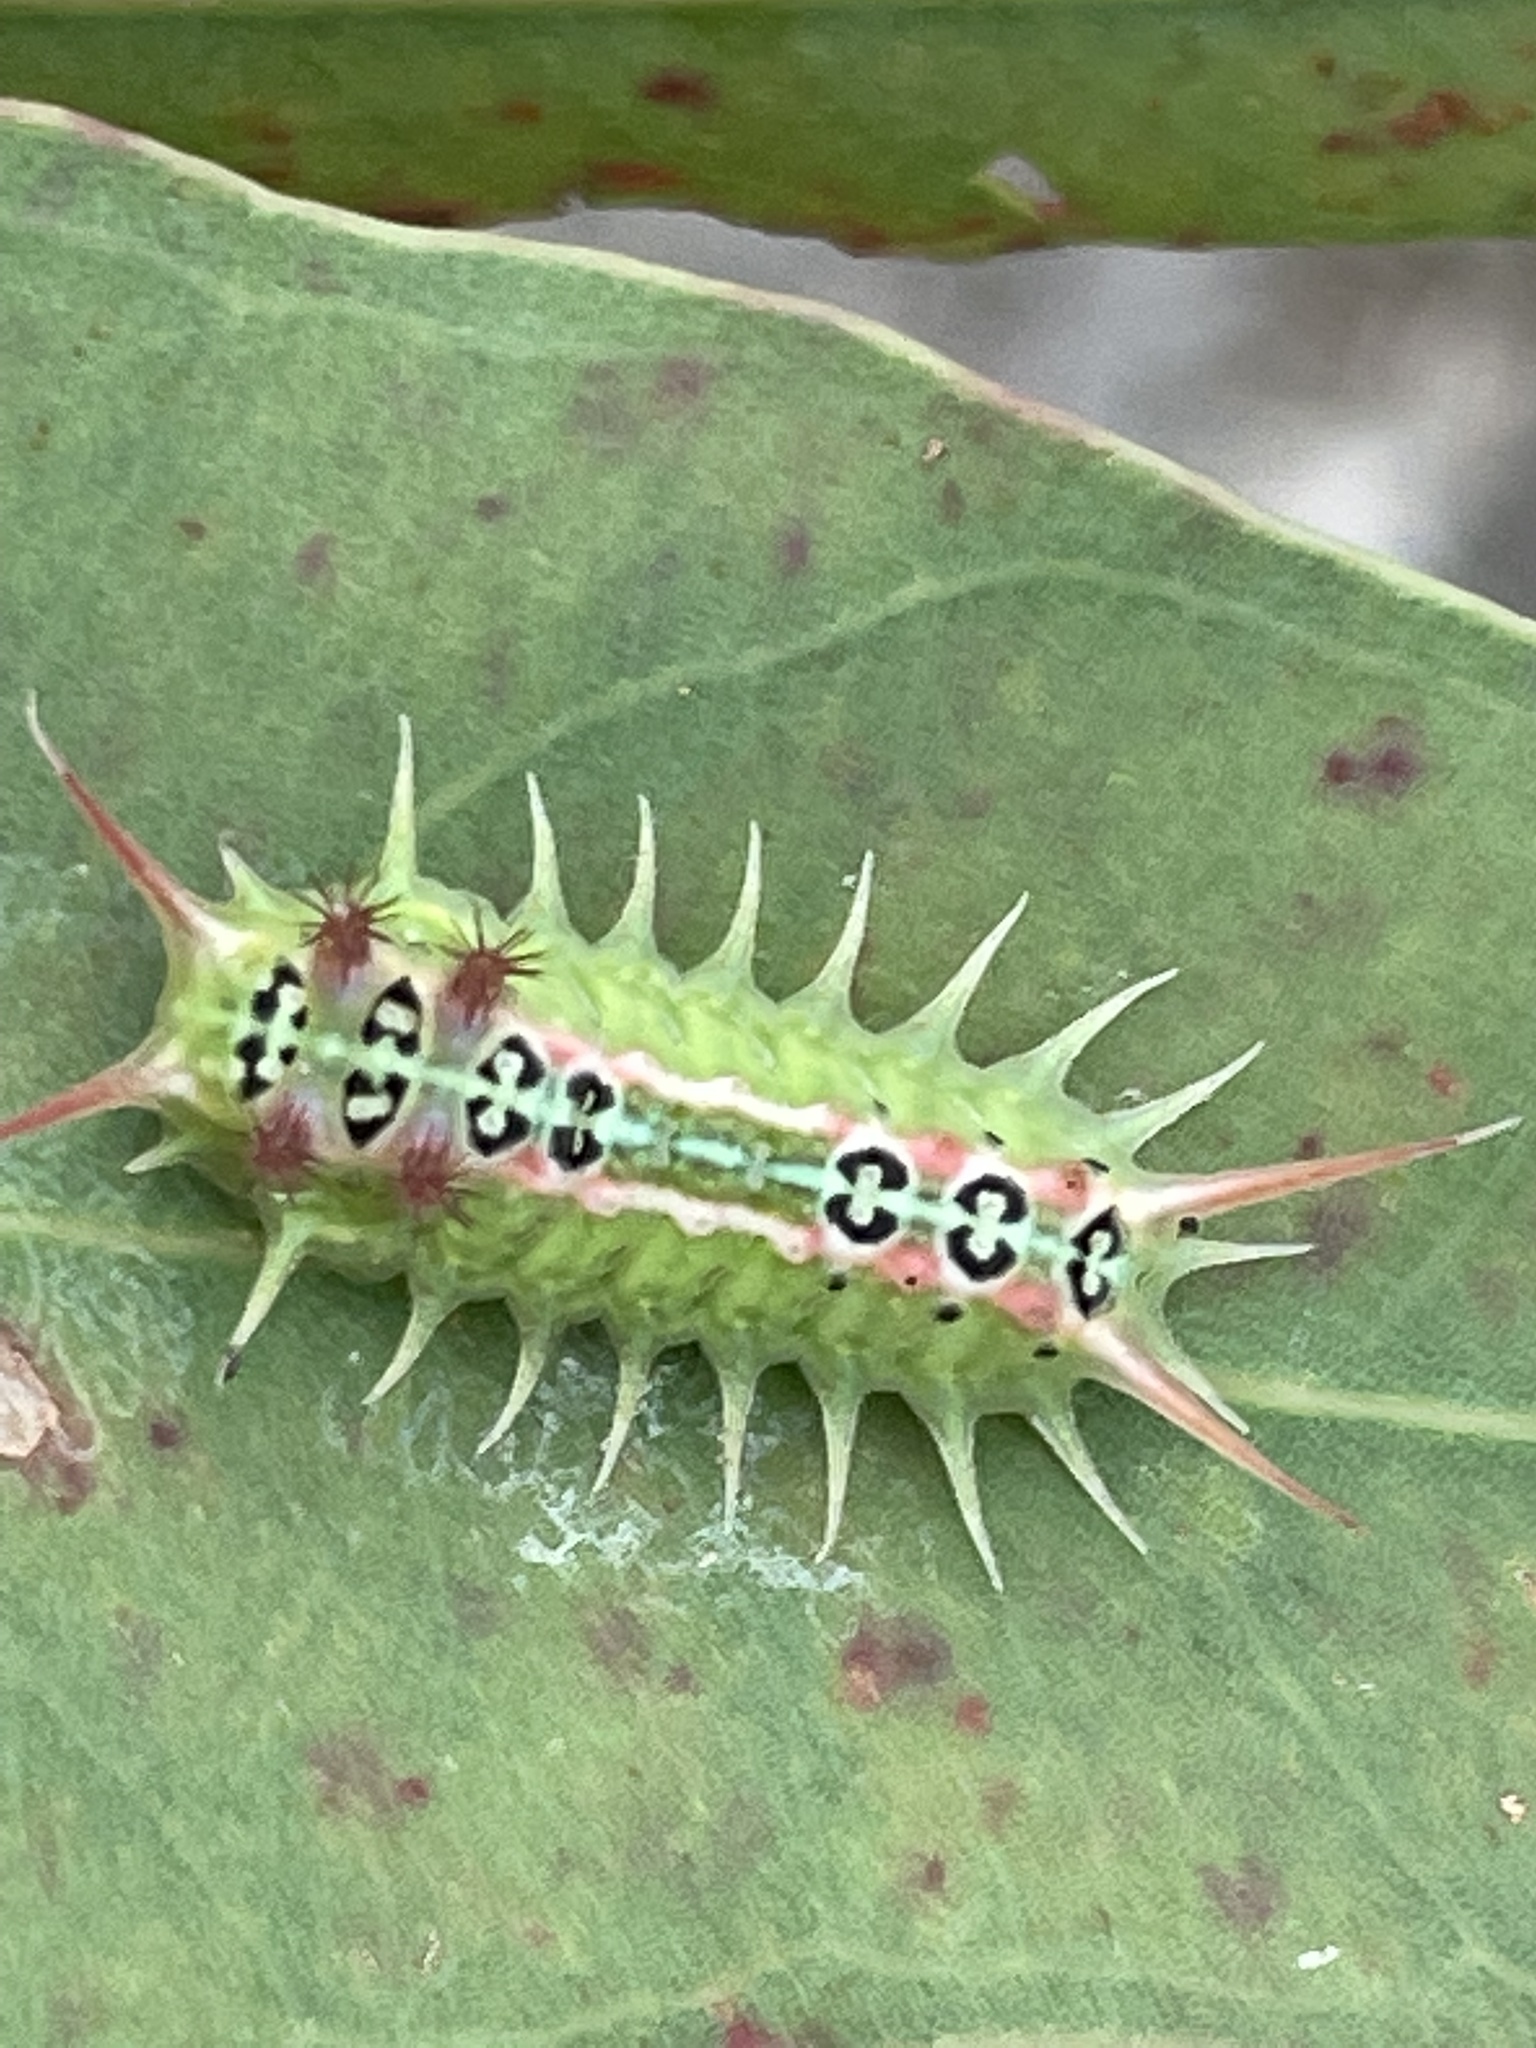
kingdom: Animalia
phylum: Arthropoda
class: Insecta
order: Lepidoptera
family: Limacodidae
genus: Doratifera
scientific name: Doratifera quadriguttata
